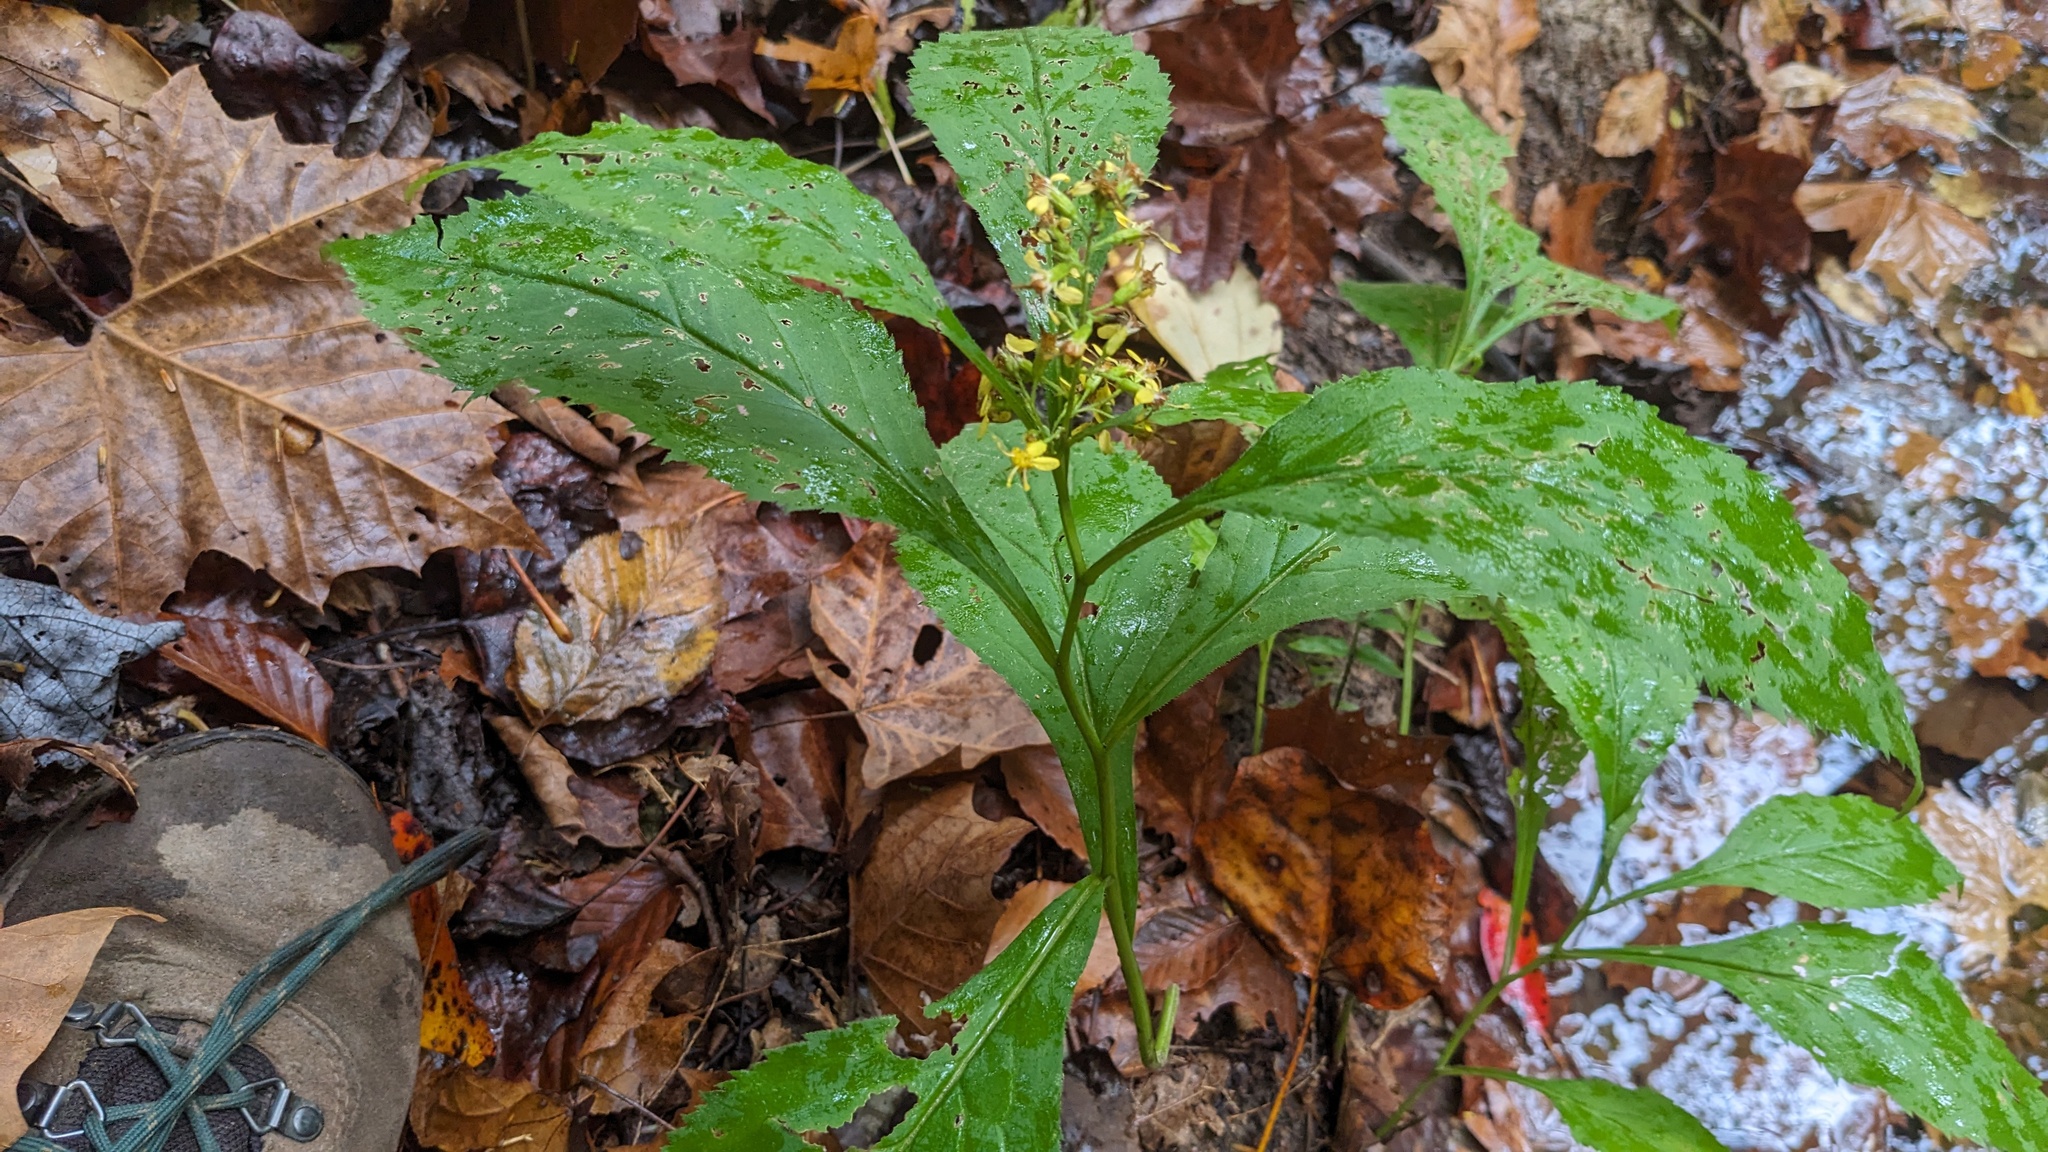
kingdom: Plantae
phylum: Tracheophyta
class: Magnoliopsida
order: Asterales
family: Asteraceae
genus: Solidago
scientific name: Solidago flexicaulis
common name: Zig-zag goldenrod
